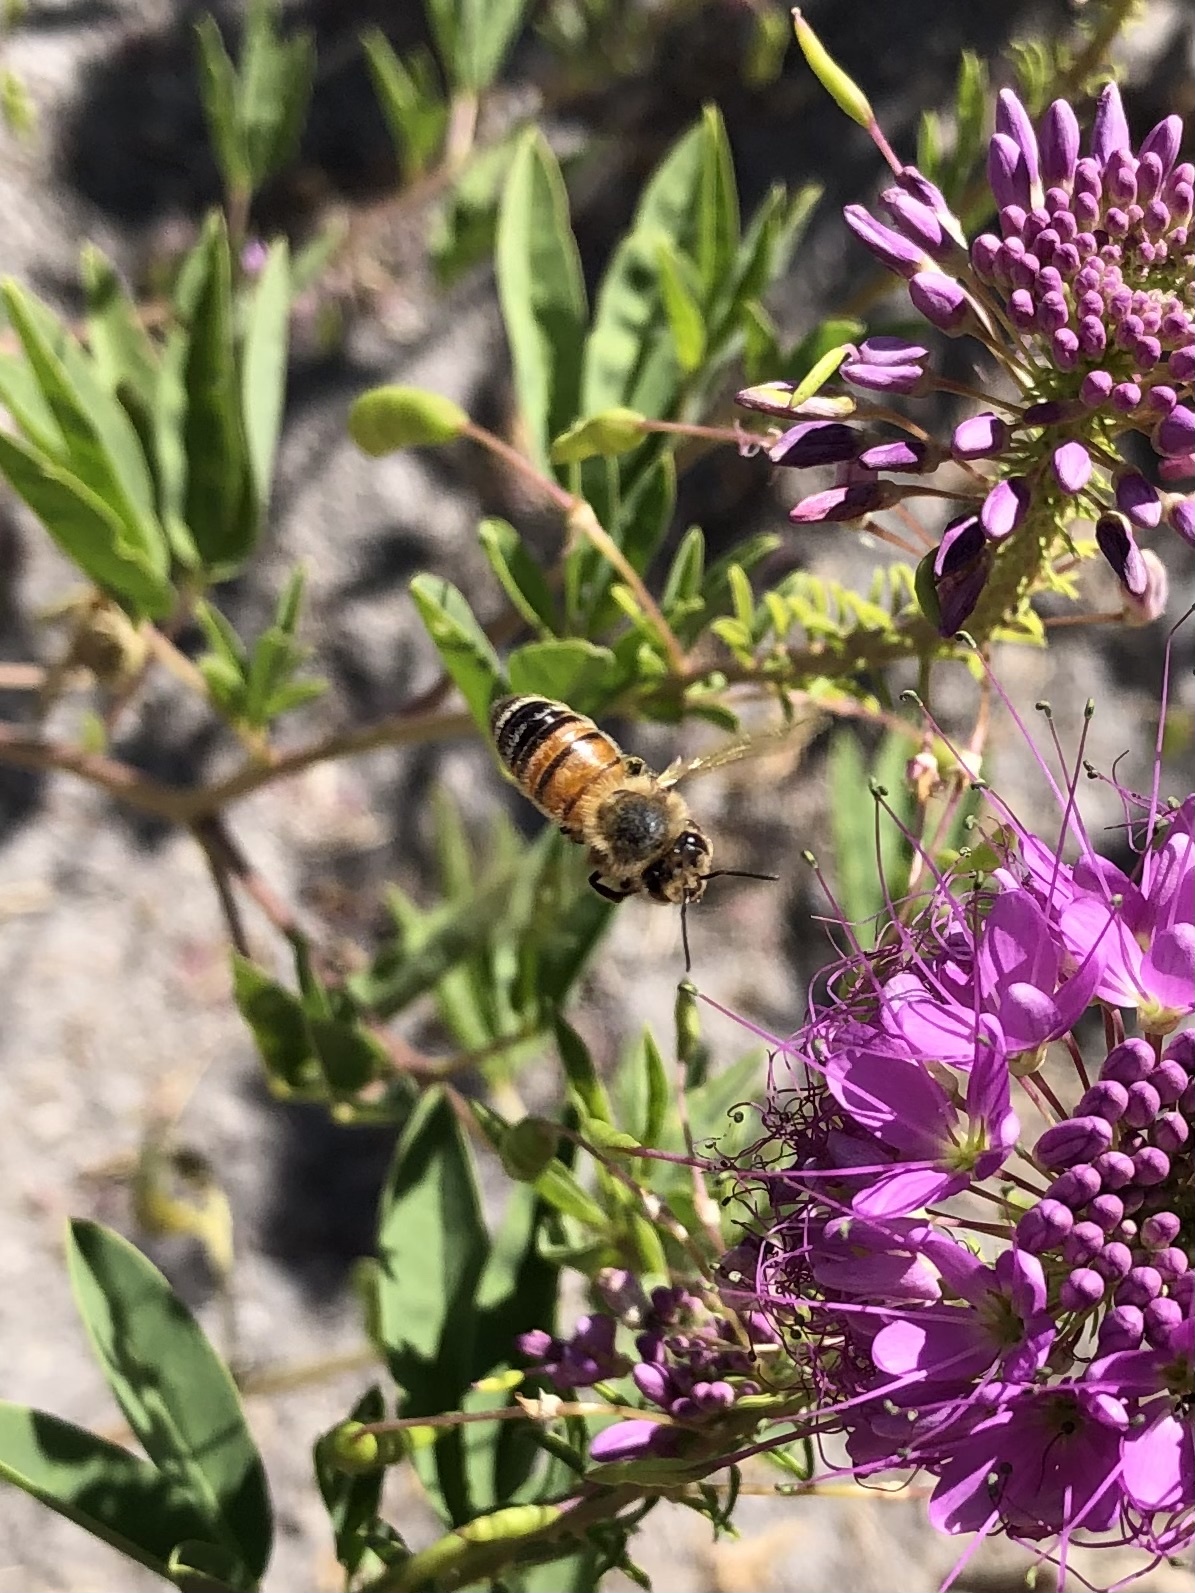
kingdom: Animalia
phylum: Arthropoda
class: Insecta
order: Hymenoptera
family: Apidae
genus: Apis
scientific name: Apis mellifera
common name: Honey bee
